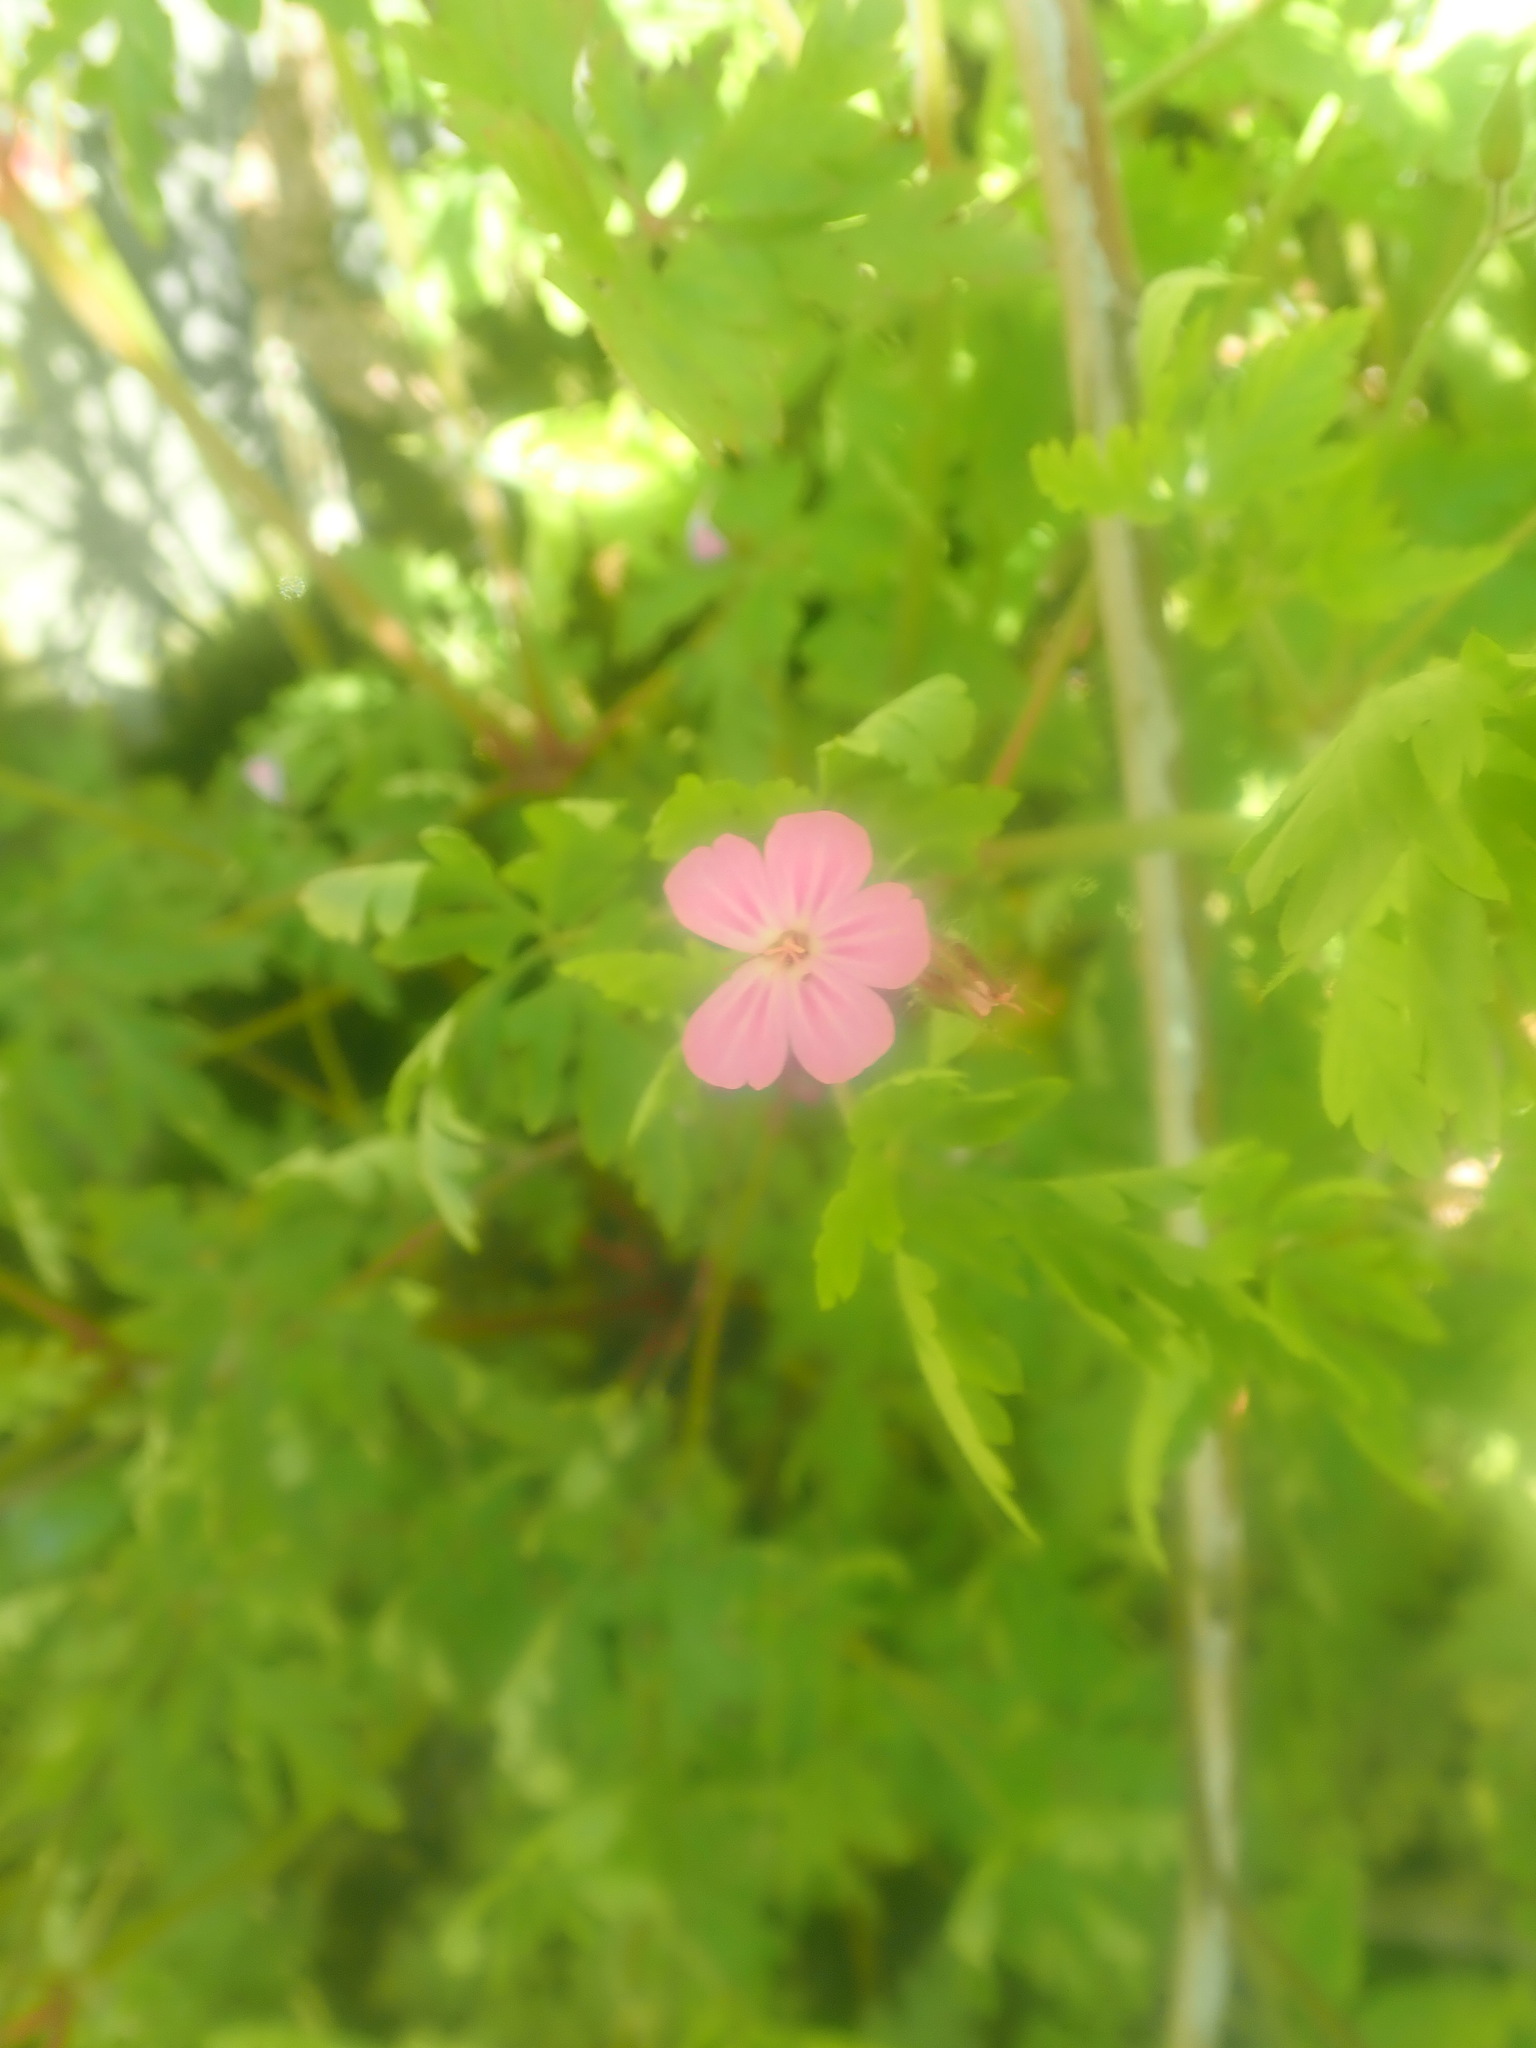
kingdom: Plantae
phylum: Tracheophyta
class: Magnoliopsida
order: Geraniales
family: Geraniaceae
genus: Geranium
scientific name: Geranium robertianum
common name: Herb-robert
